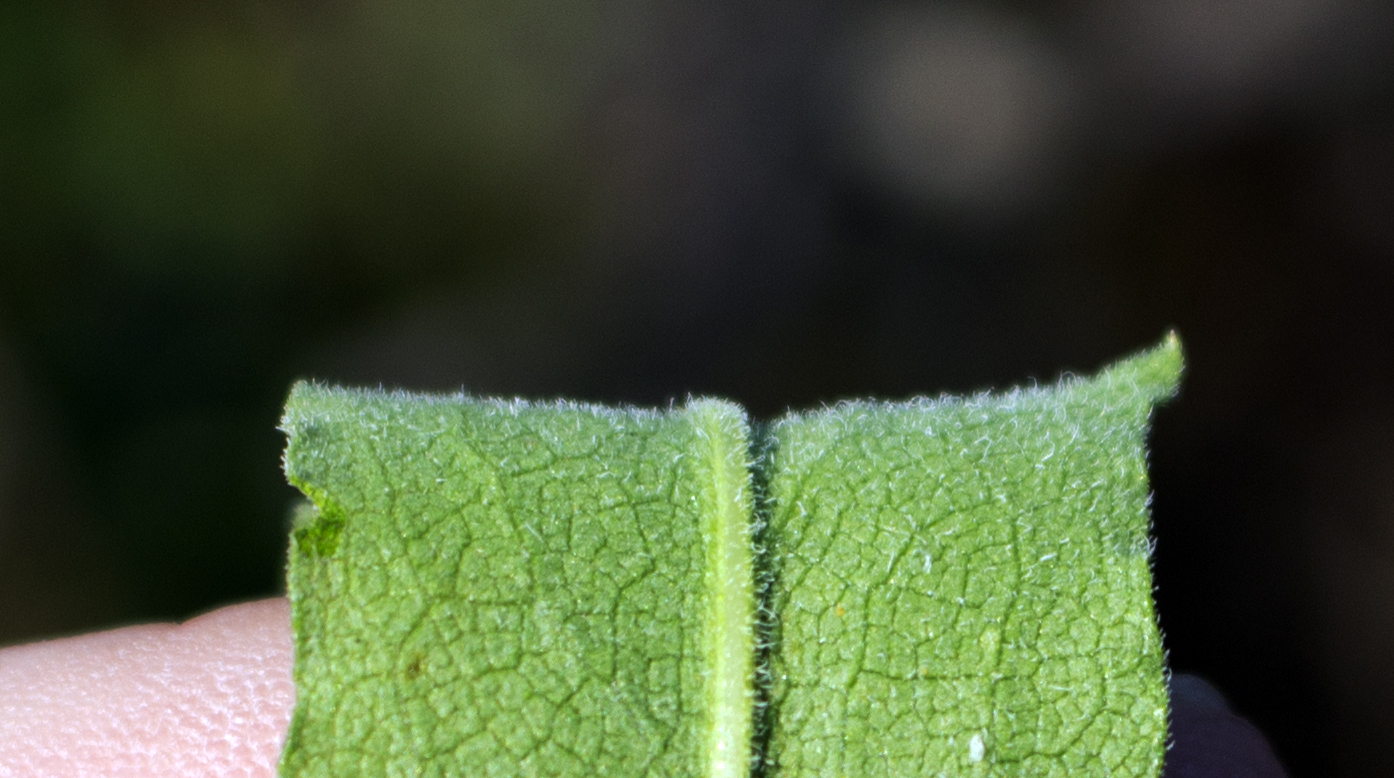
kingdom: Plantae
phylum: Tracheophyta
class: Magnoliopsida
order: Asterales
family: Asteraceae
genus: Symphyotrichum
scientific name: Symphyotrichum oolentangiense
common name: Azure aster
